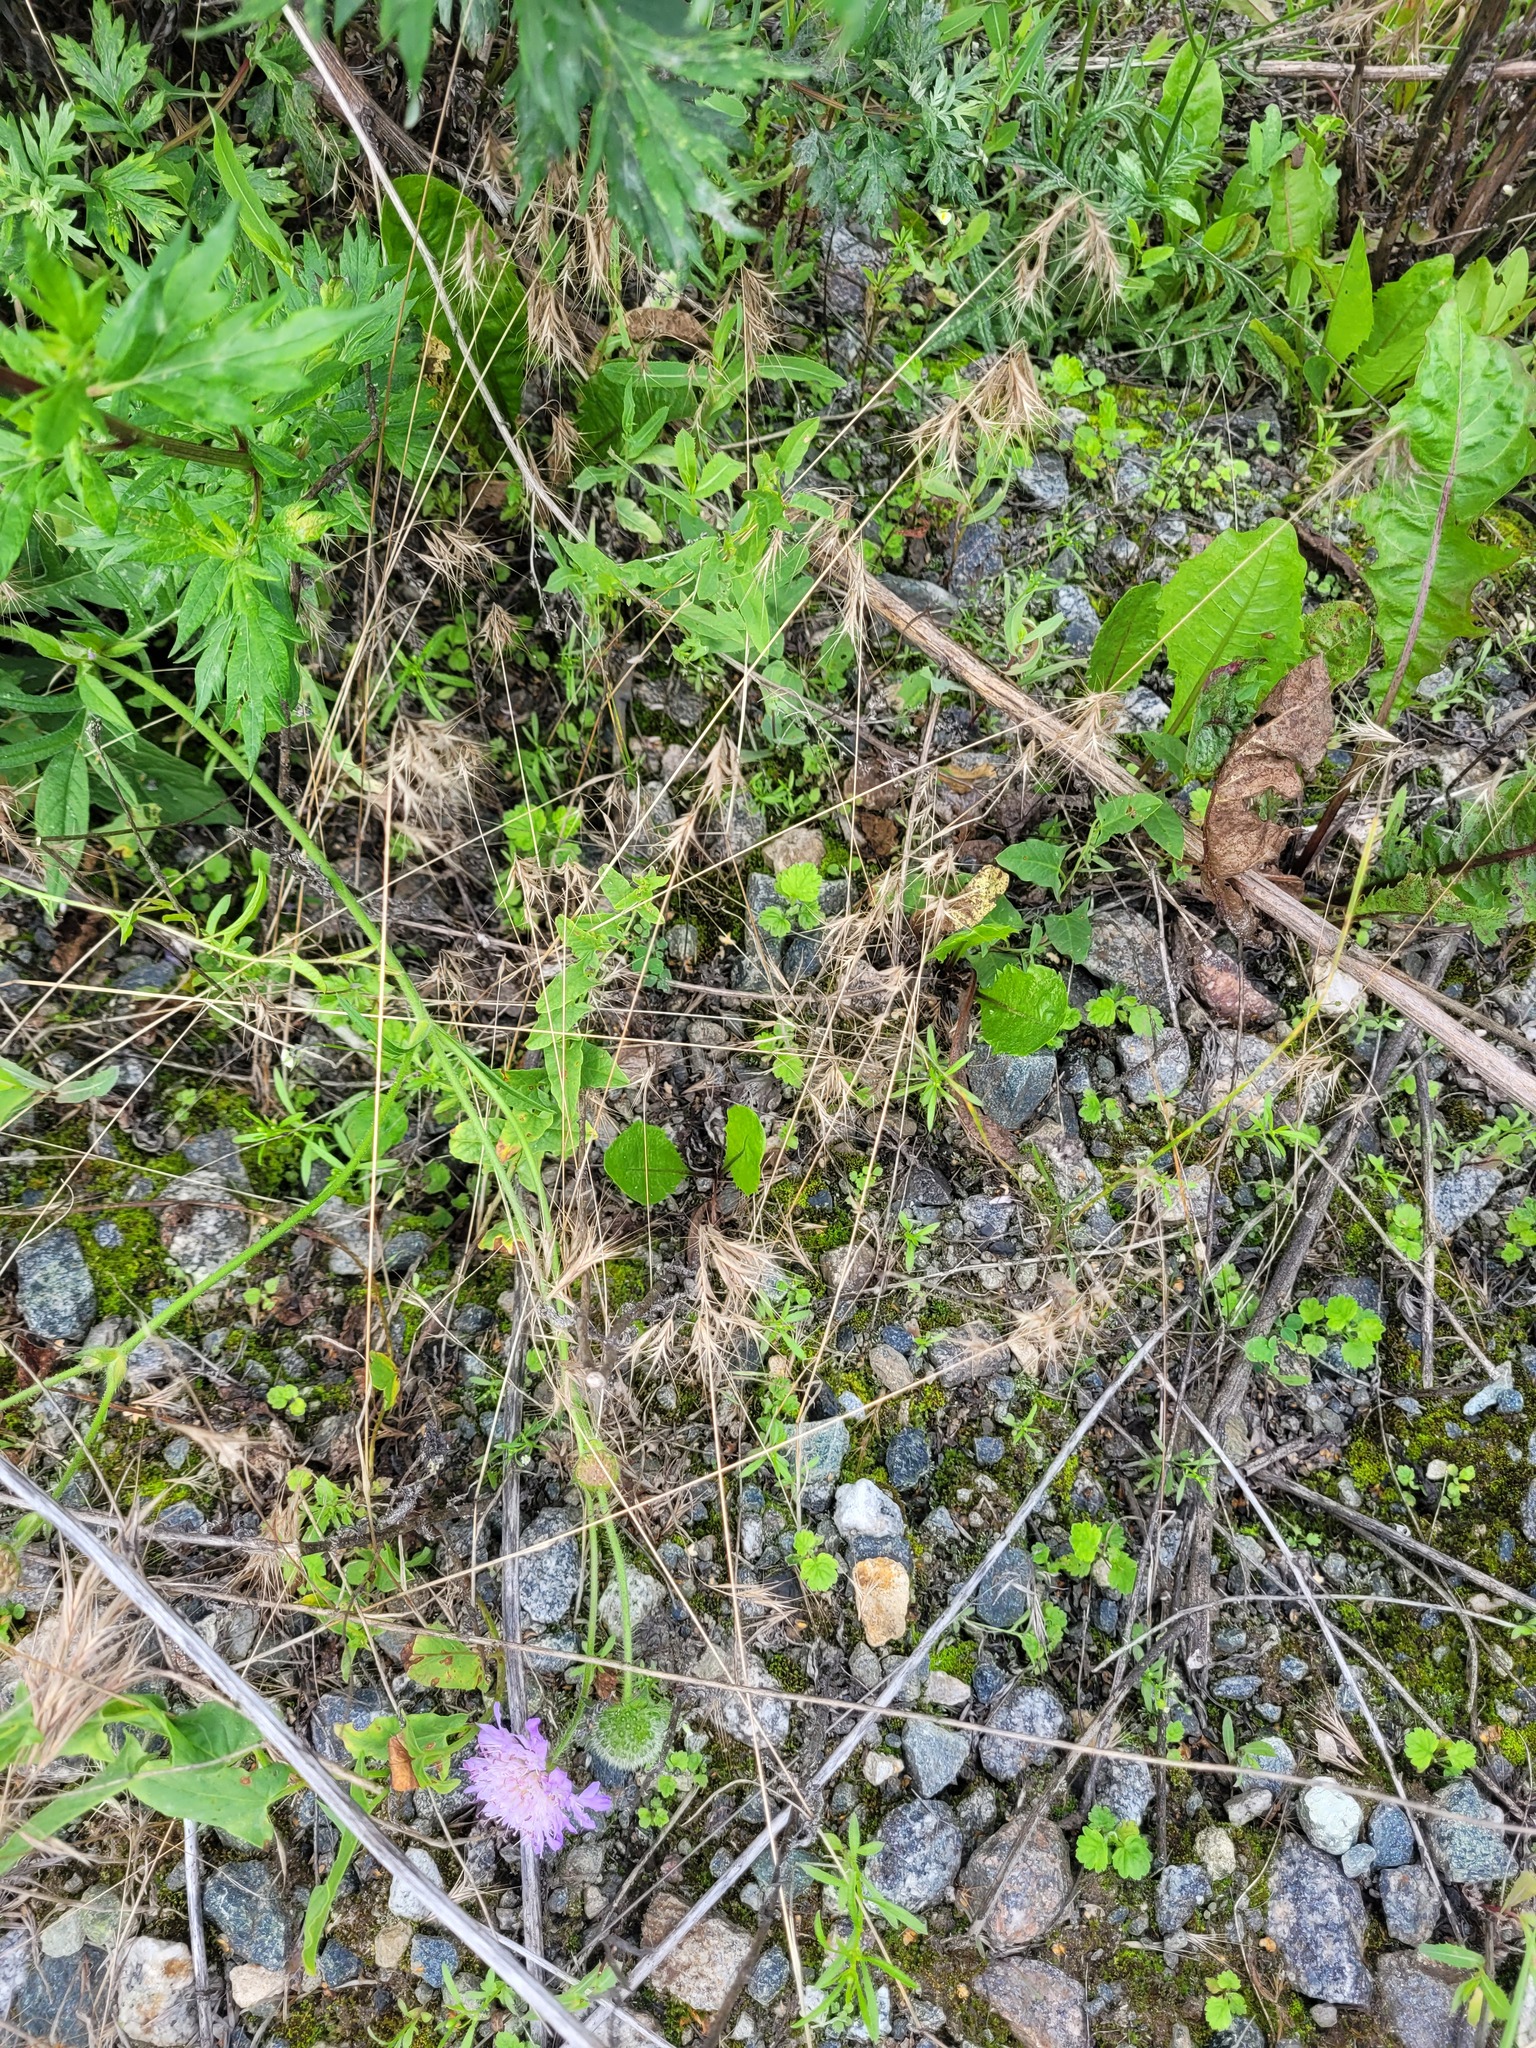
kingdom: Plantae
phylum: Tracheophyta
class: Liliopsida
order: Poales
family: Poaceae
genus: Bromus
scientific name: Bromus tectorum
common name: Cheatgrass
